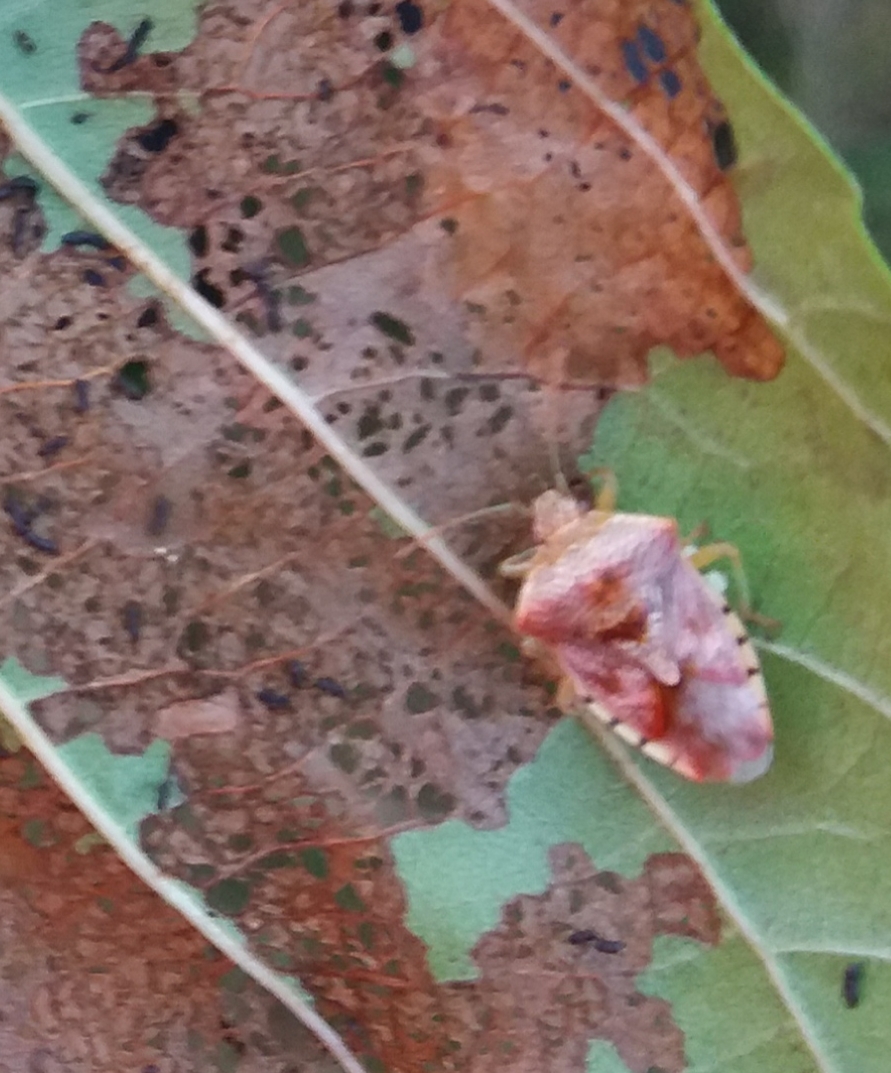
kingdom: Animalia
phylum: Arthropoda
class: Insecta
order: Hemiptera
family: Acanthosomatidae
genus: Elasmucha
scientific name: Elasmucha grisea
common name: Parent bug
